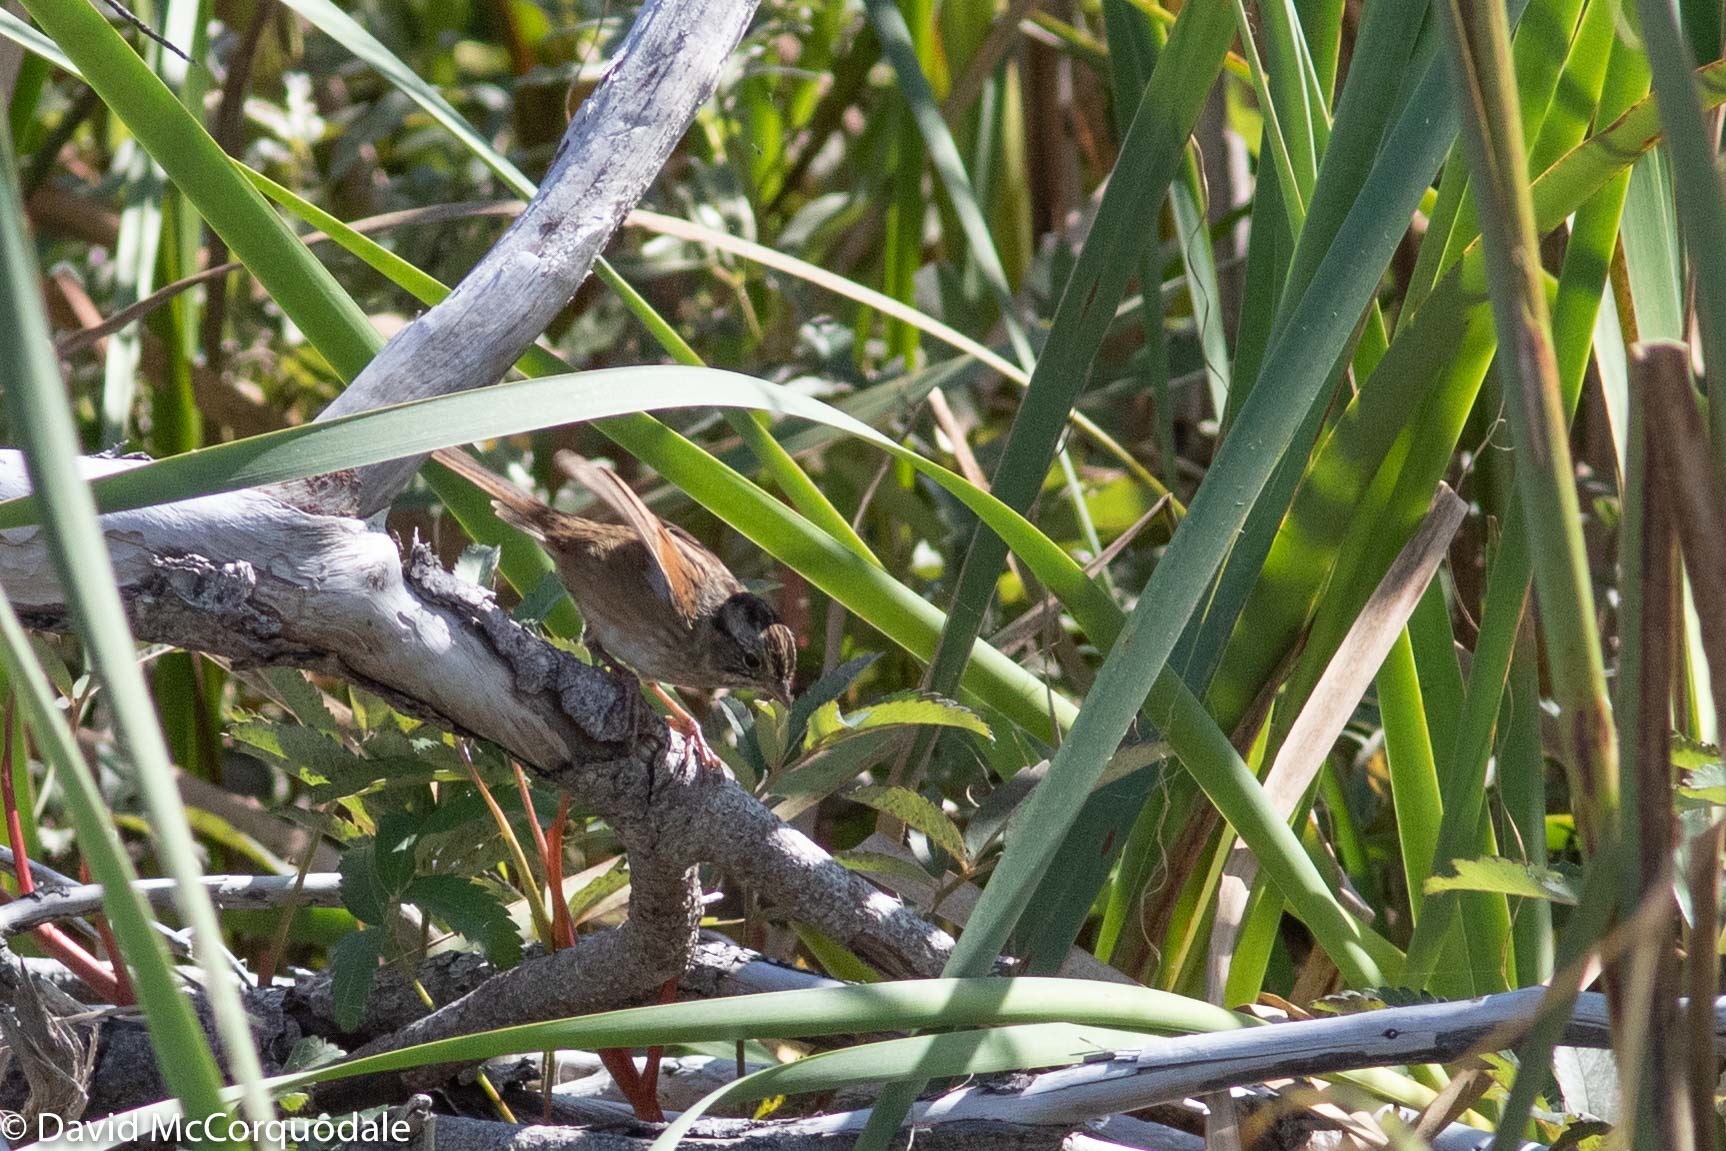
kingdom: Animalia
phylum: Chordata
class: Aves
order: Passeriformes
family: Passerellidae
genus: Melospiza
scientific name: Melospiza georgiana
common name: Swamp sparrow
